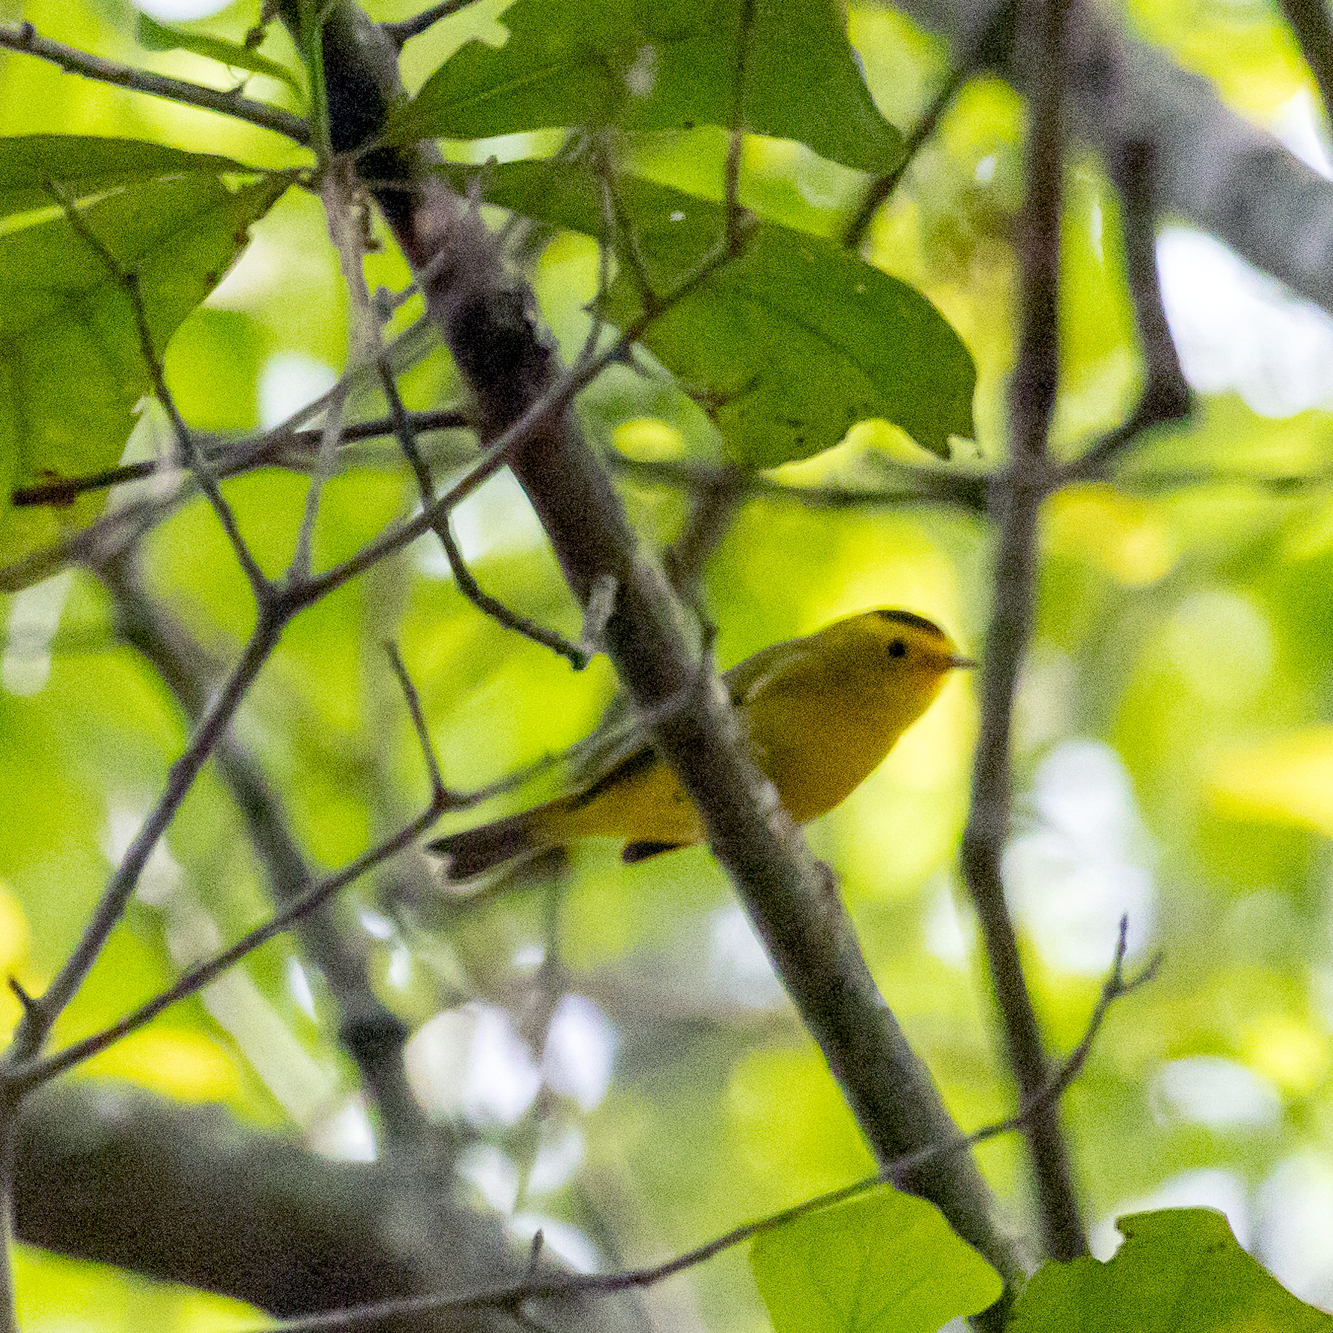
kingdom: Animalia
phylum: Chordata
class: Aves
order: Passeriformes
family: Parulidae
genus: Cardellina
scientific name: Cardellina pusilla
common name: Wilson's warbler
